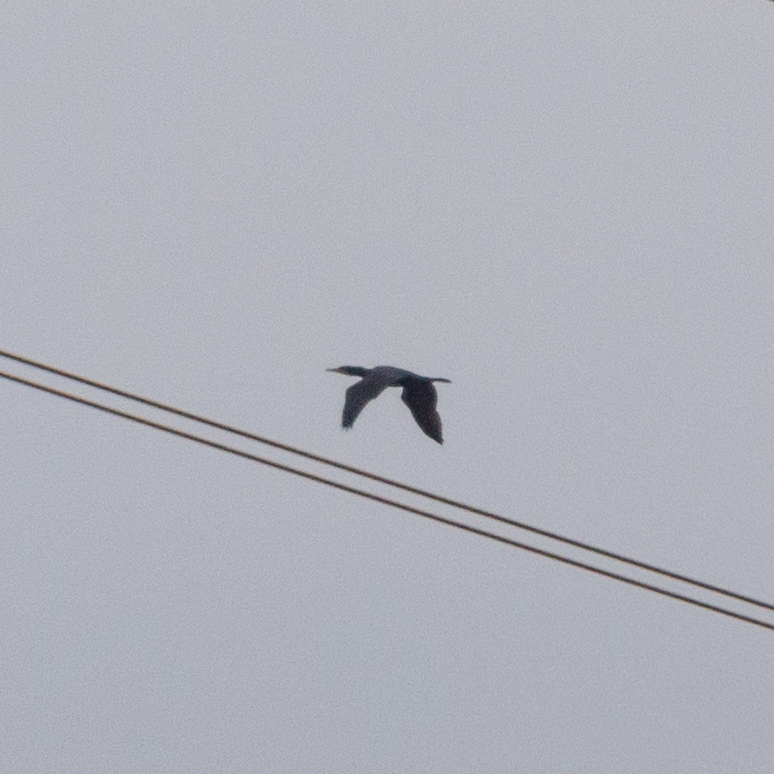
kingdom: Animalia
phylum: Chordata
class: Aves
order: Suliformes
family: Phalacrocoracidae
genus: Phalacrocorax
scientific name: Phalacrocorax carbo
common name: Great cormorant
